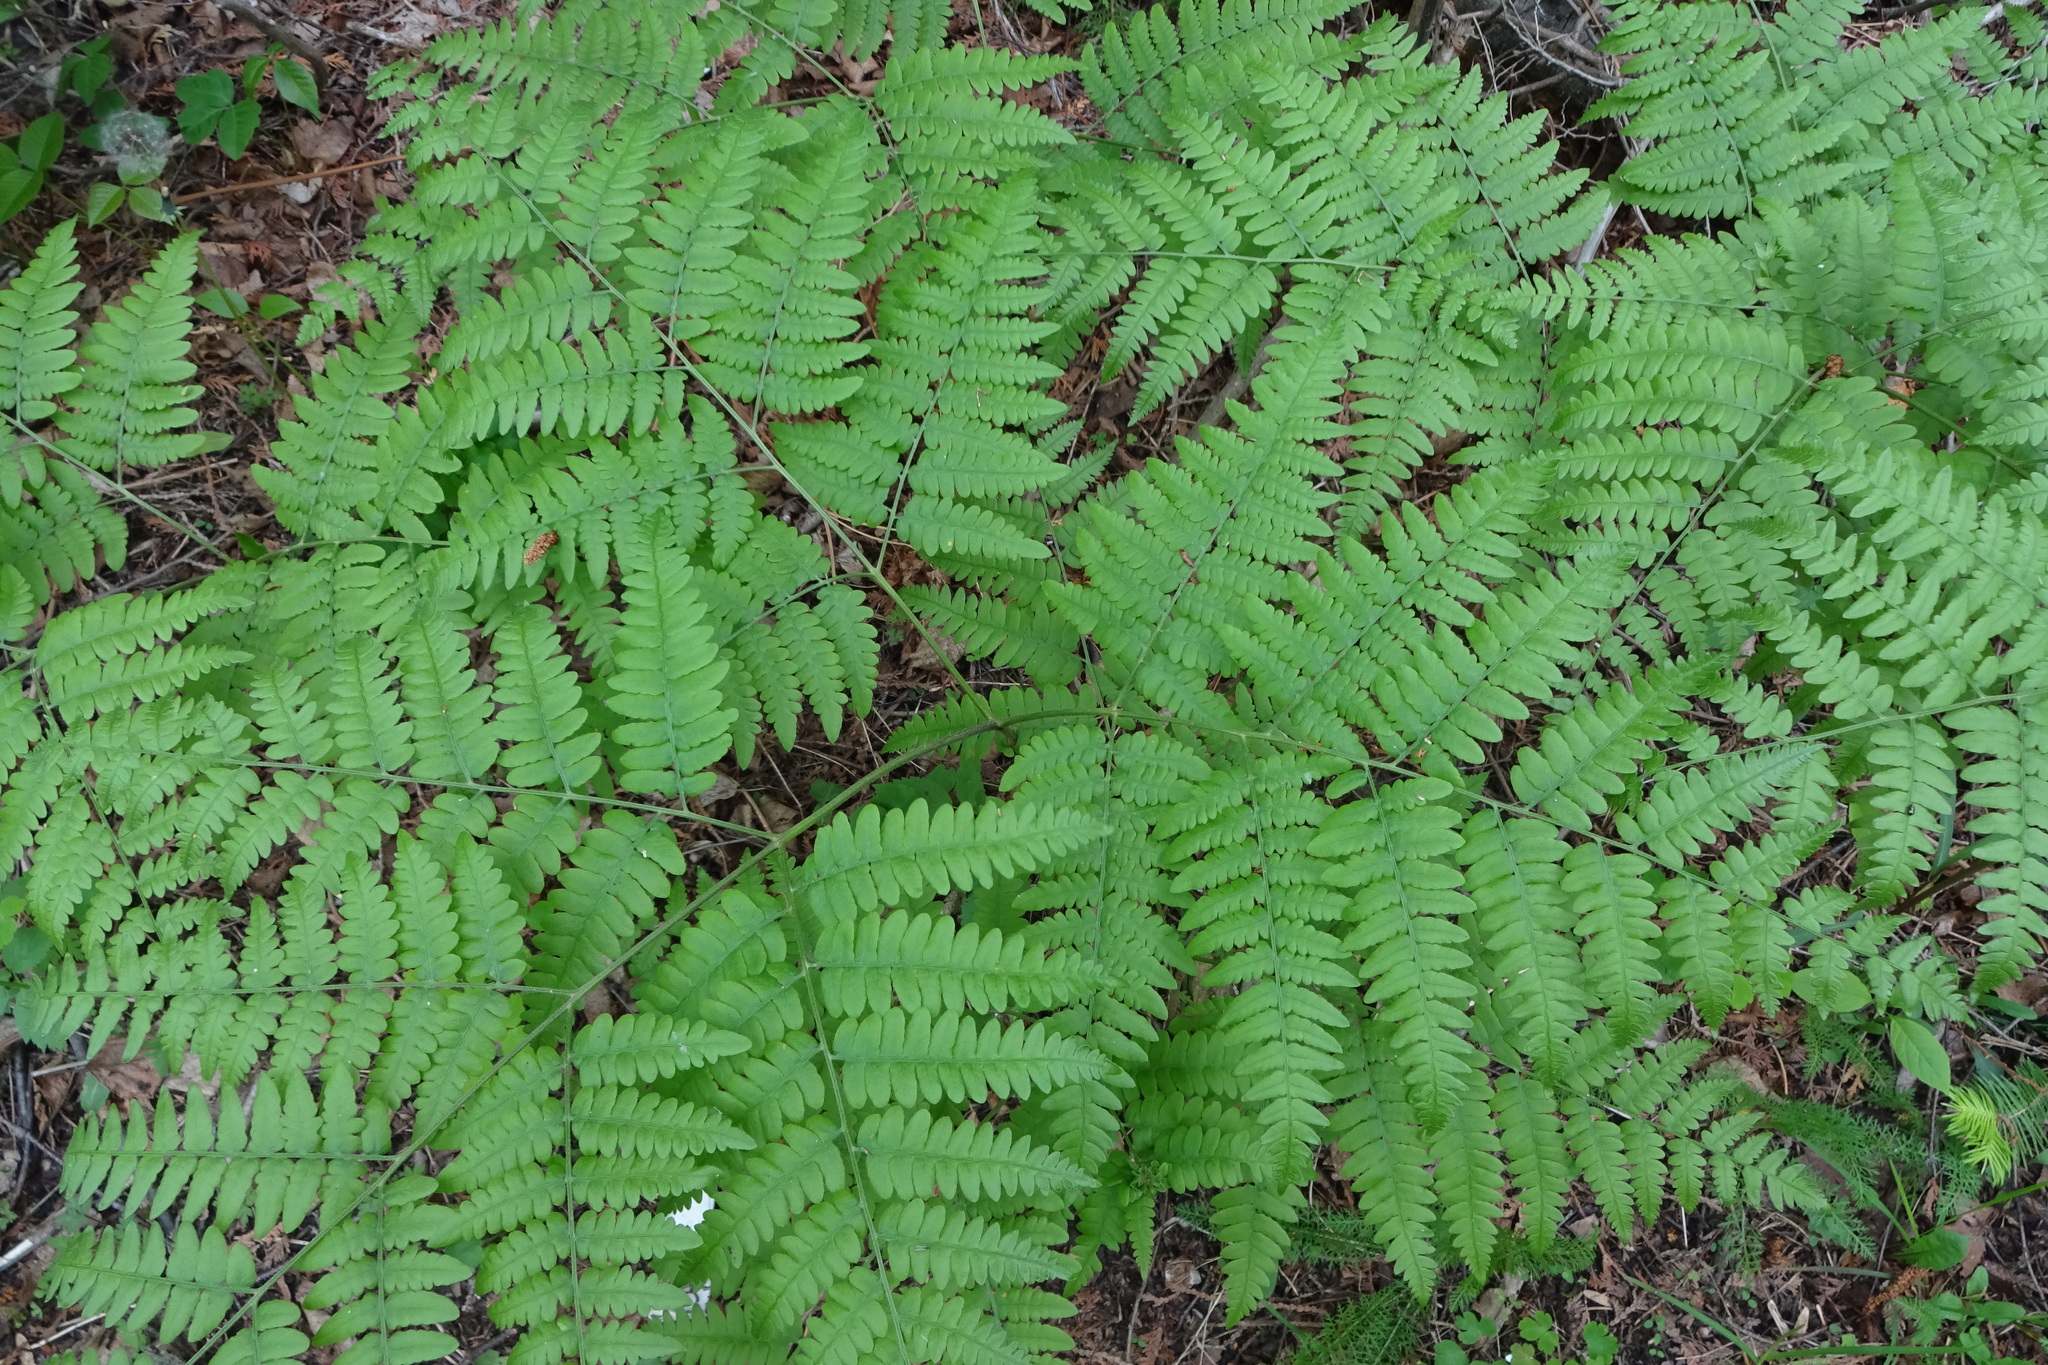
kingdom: Plantae
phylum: Tracheophyta
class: Polypodiopsida
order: Polypodiales
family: Dennstaedtiaceae
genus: Pteridium
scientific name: Pteridium aquilinum
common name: Bracken
